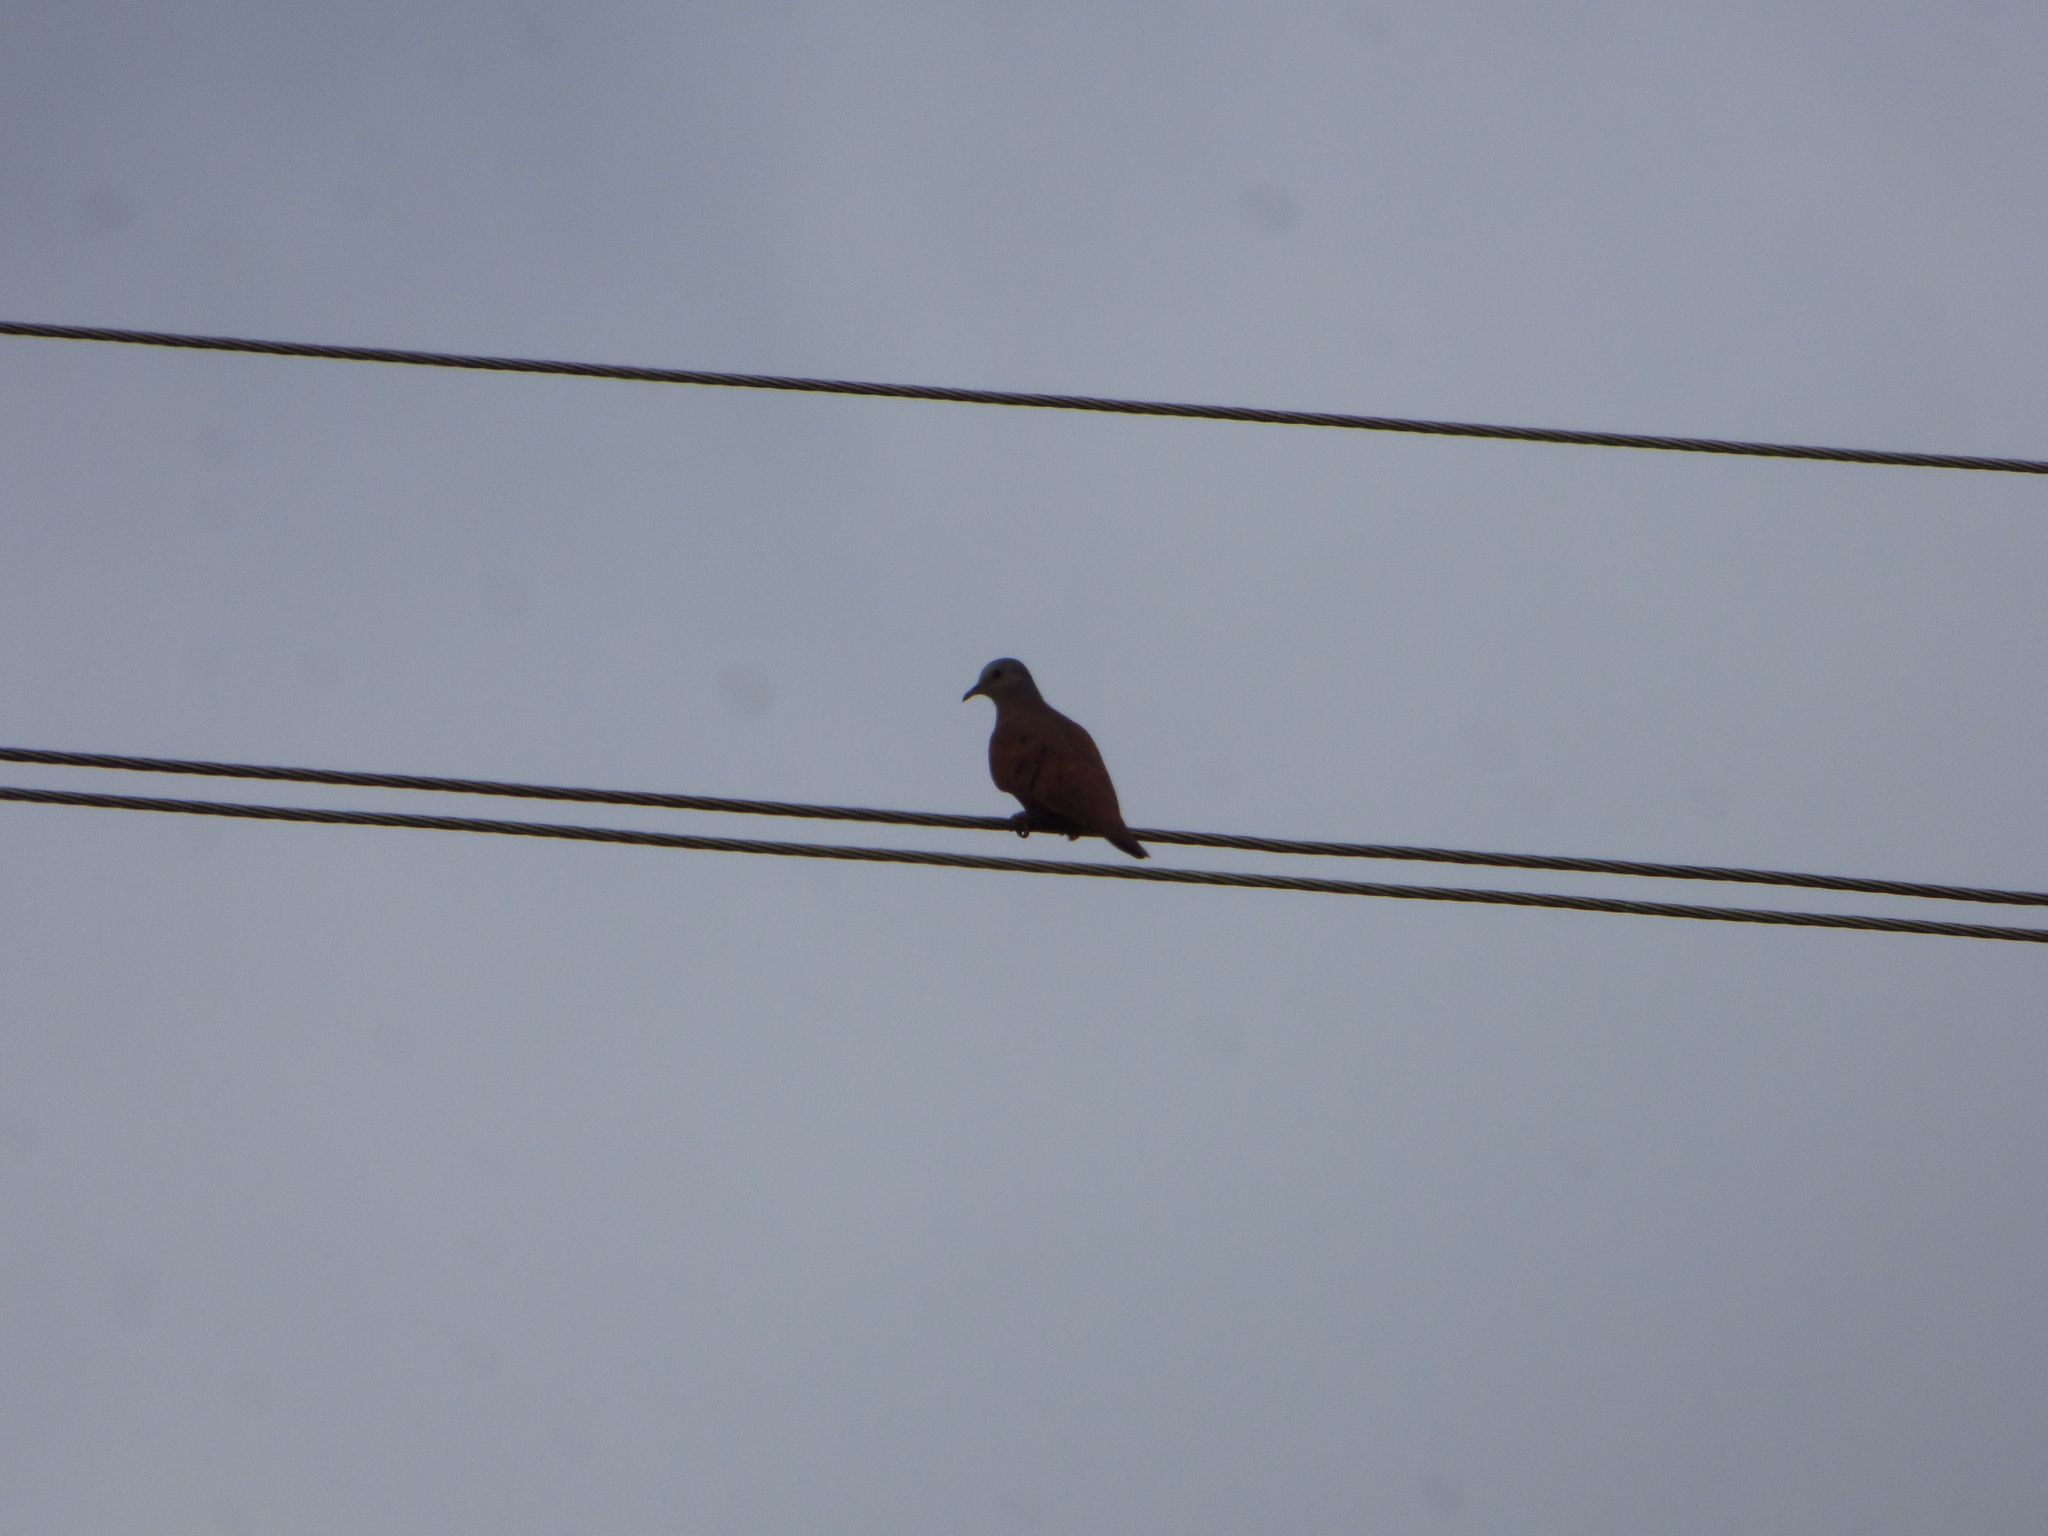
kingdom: Animalia
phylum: Chordata
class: Aves
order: Columbiformes
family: Columbidae
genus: Columbina
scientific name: Columbina talpacoti
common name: Ruddy ground dove
